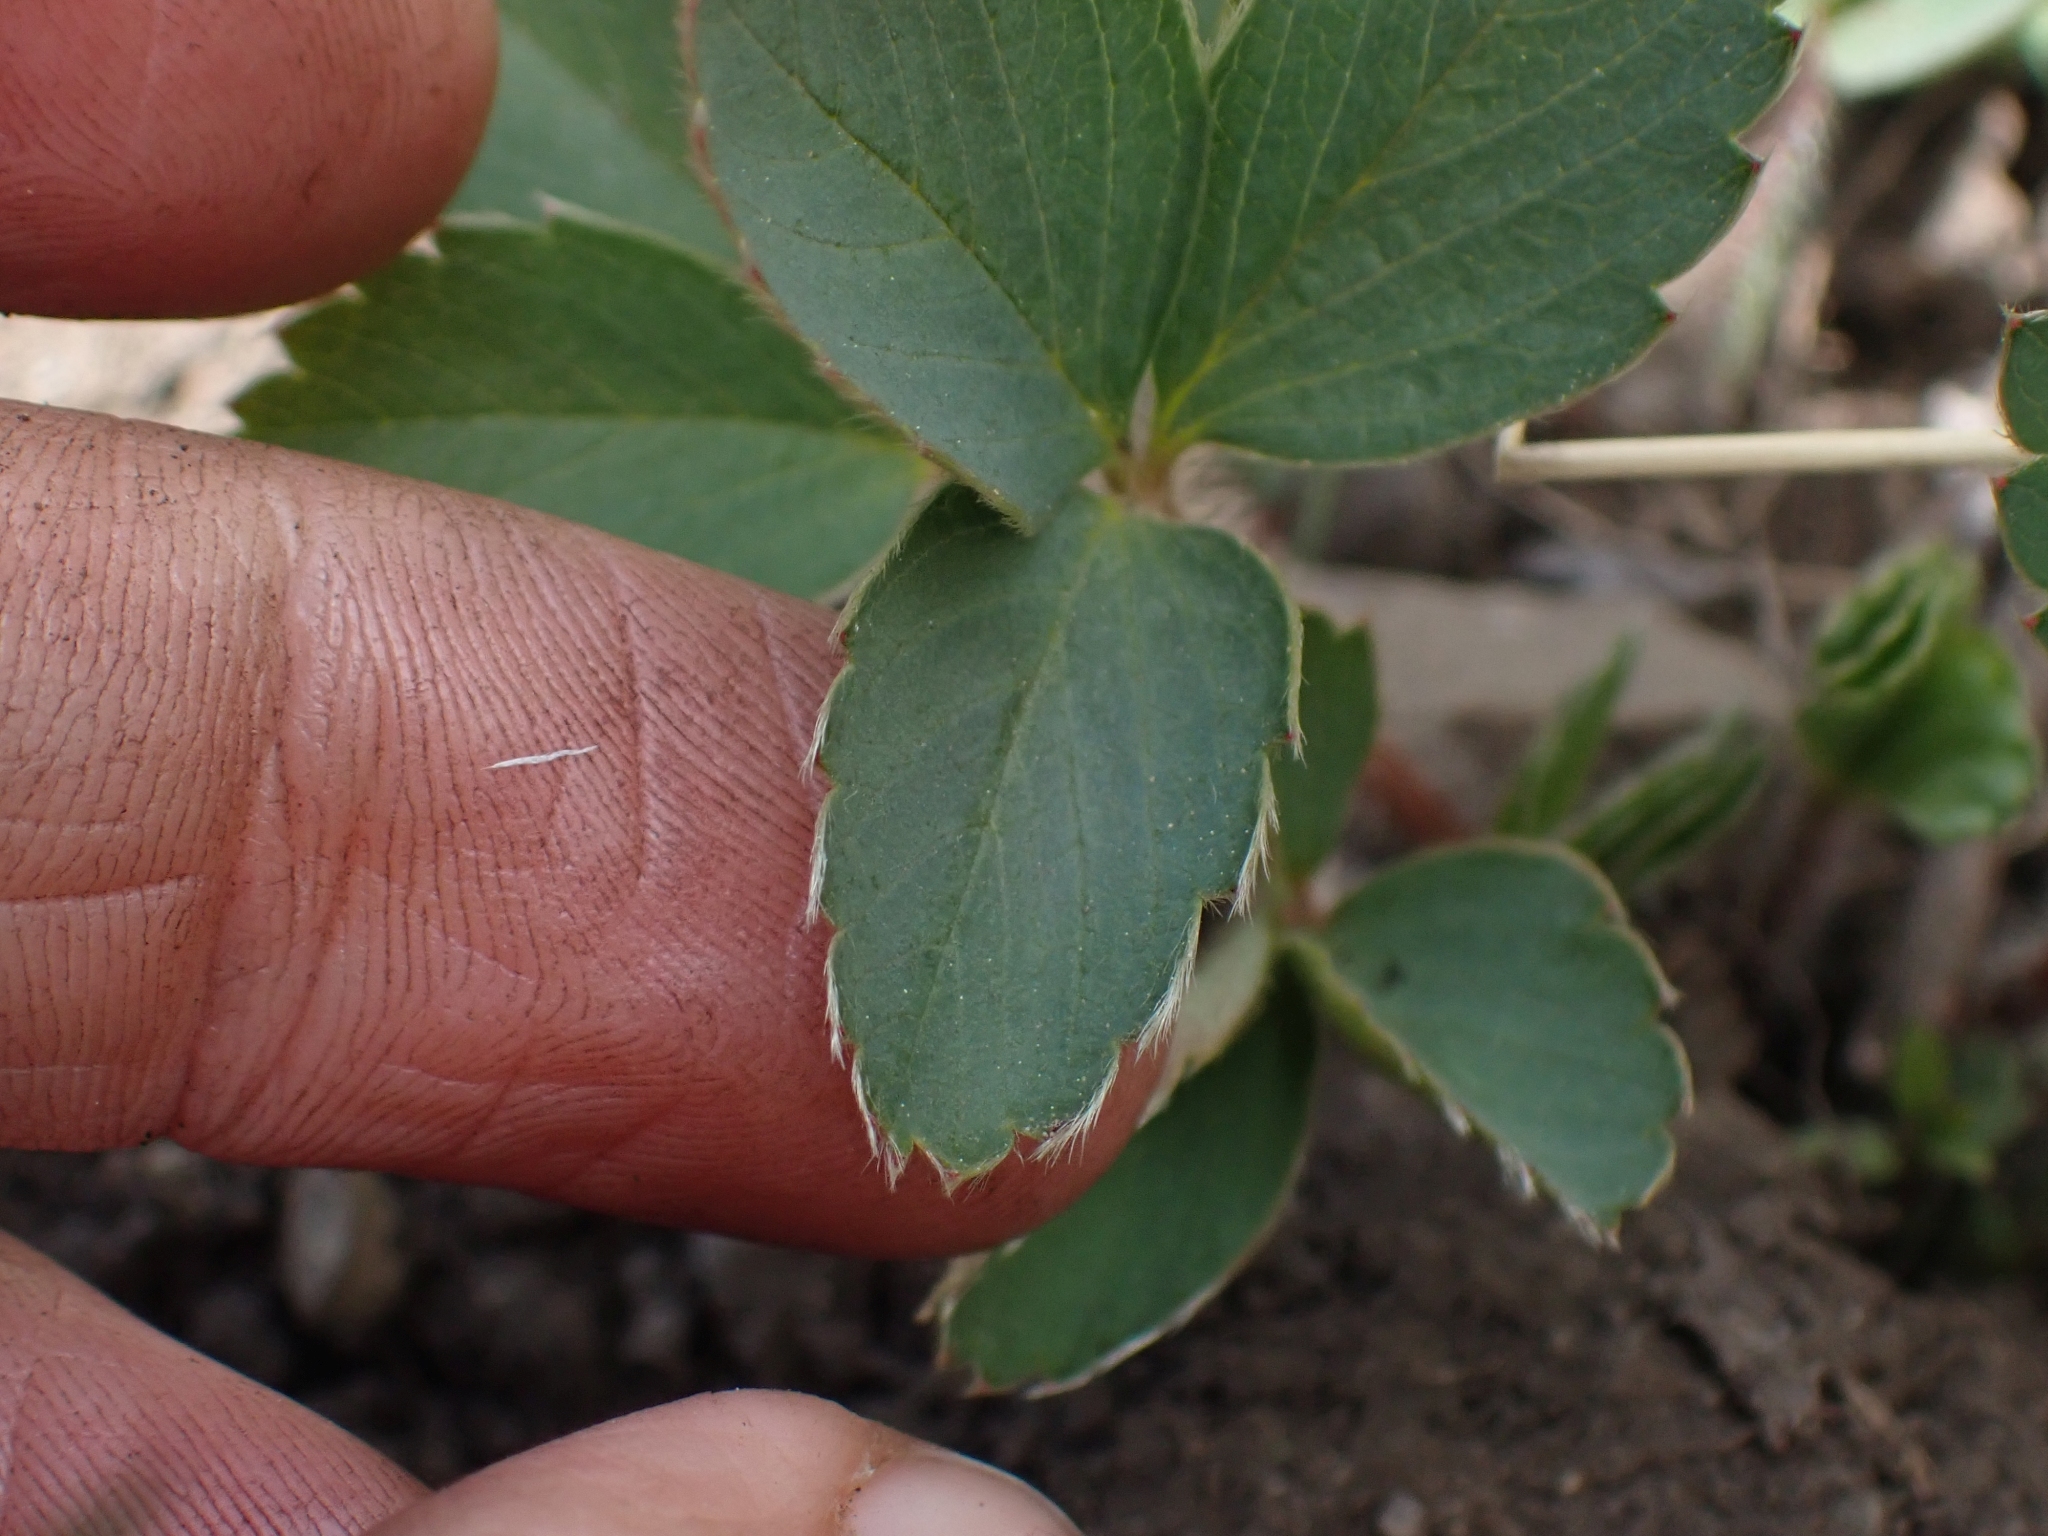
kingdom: Plantae
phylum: Tracheophyta
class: Magnoliopsida
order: Rosales
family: Rosaceae
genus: Fragaria
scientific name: Fragaria virginiana
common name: Thickleaved wild strawberry
